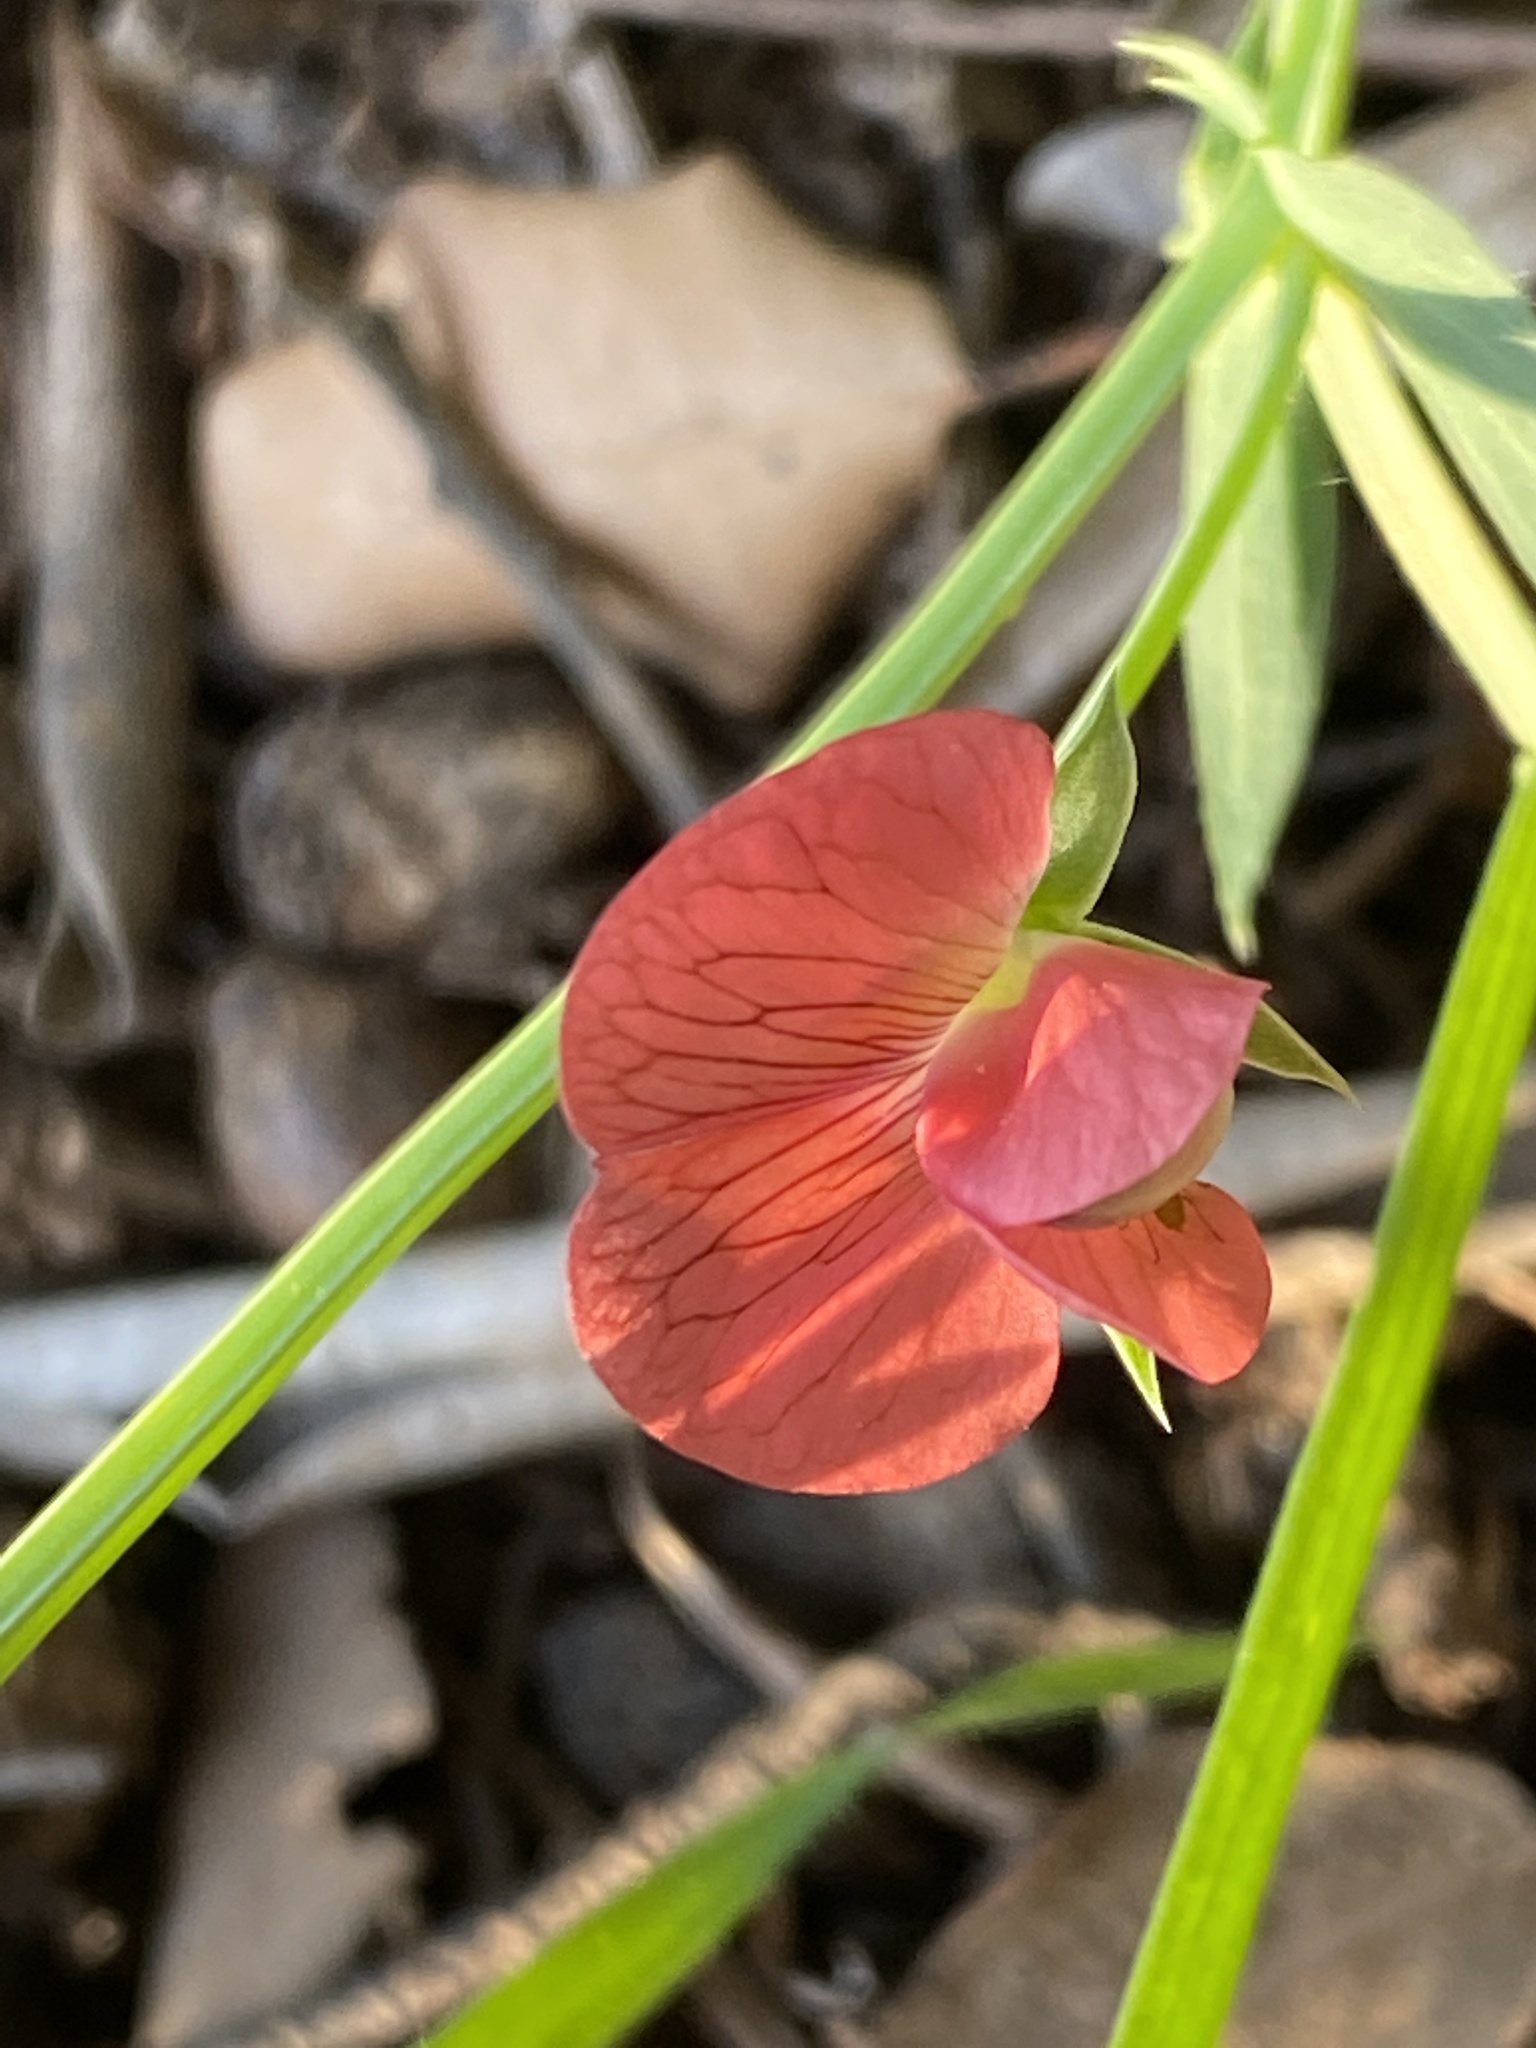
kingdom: Plantae
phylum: Tracheophyta
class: Magnoliopsida
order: Fabales
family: Fabaceae
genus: Lathyrus
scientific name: Lathyrus cicera
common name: Red vetchling
